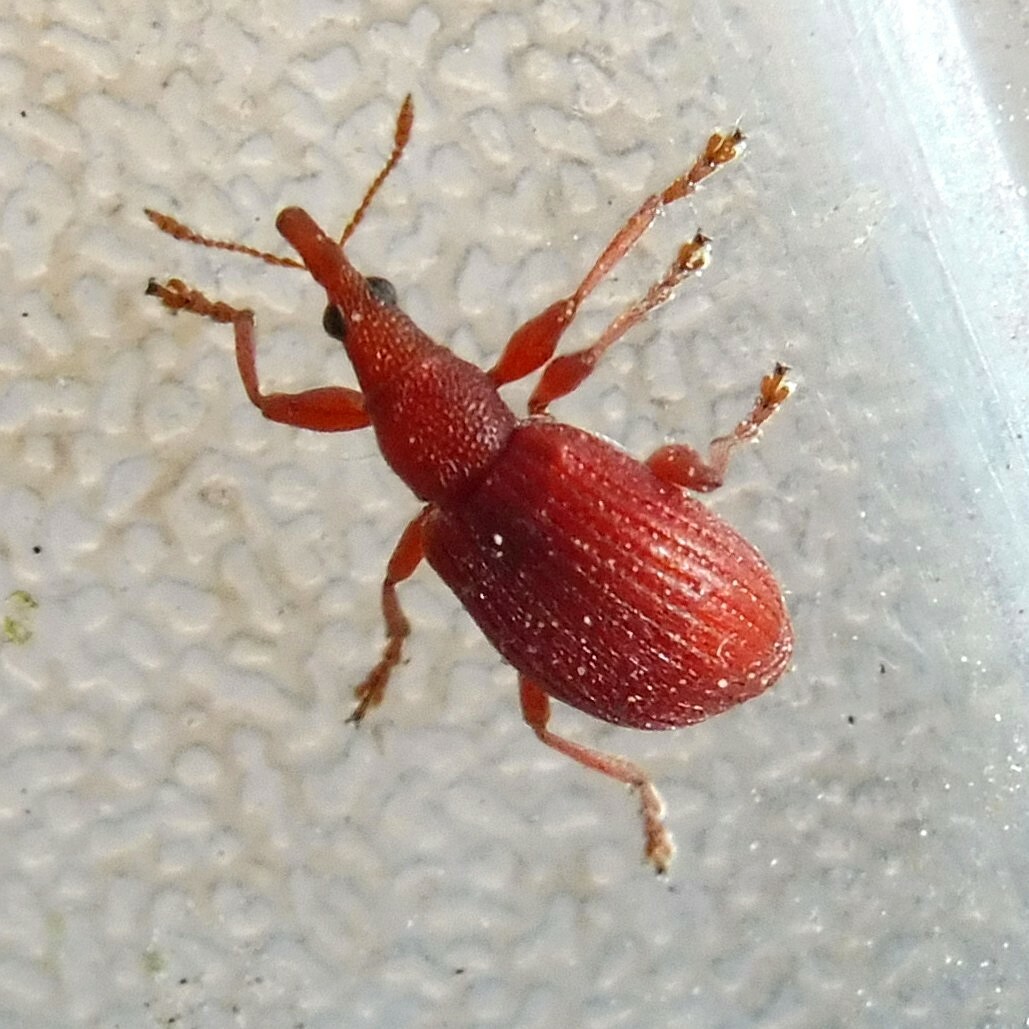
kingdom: Animalia
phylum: Arthropoda
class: Insecta
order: Coleoptera
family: Apionidae
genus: Apion
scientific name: Apion frumentarium
